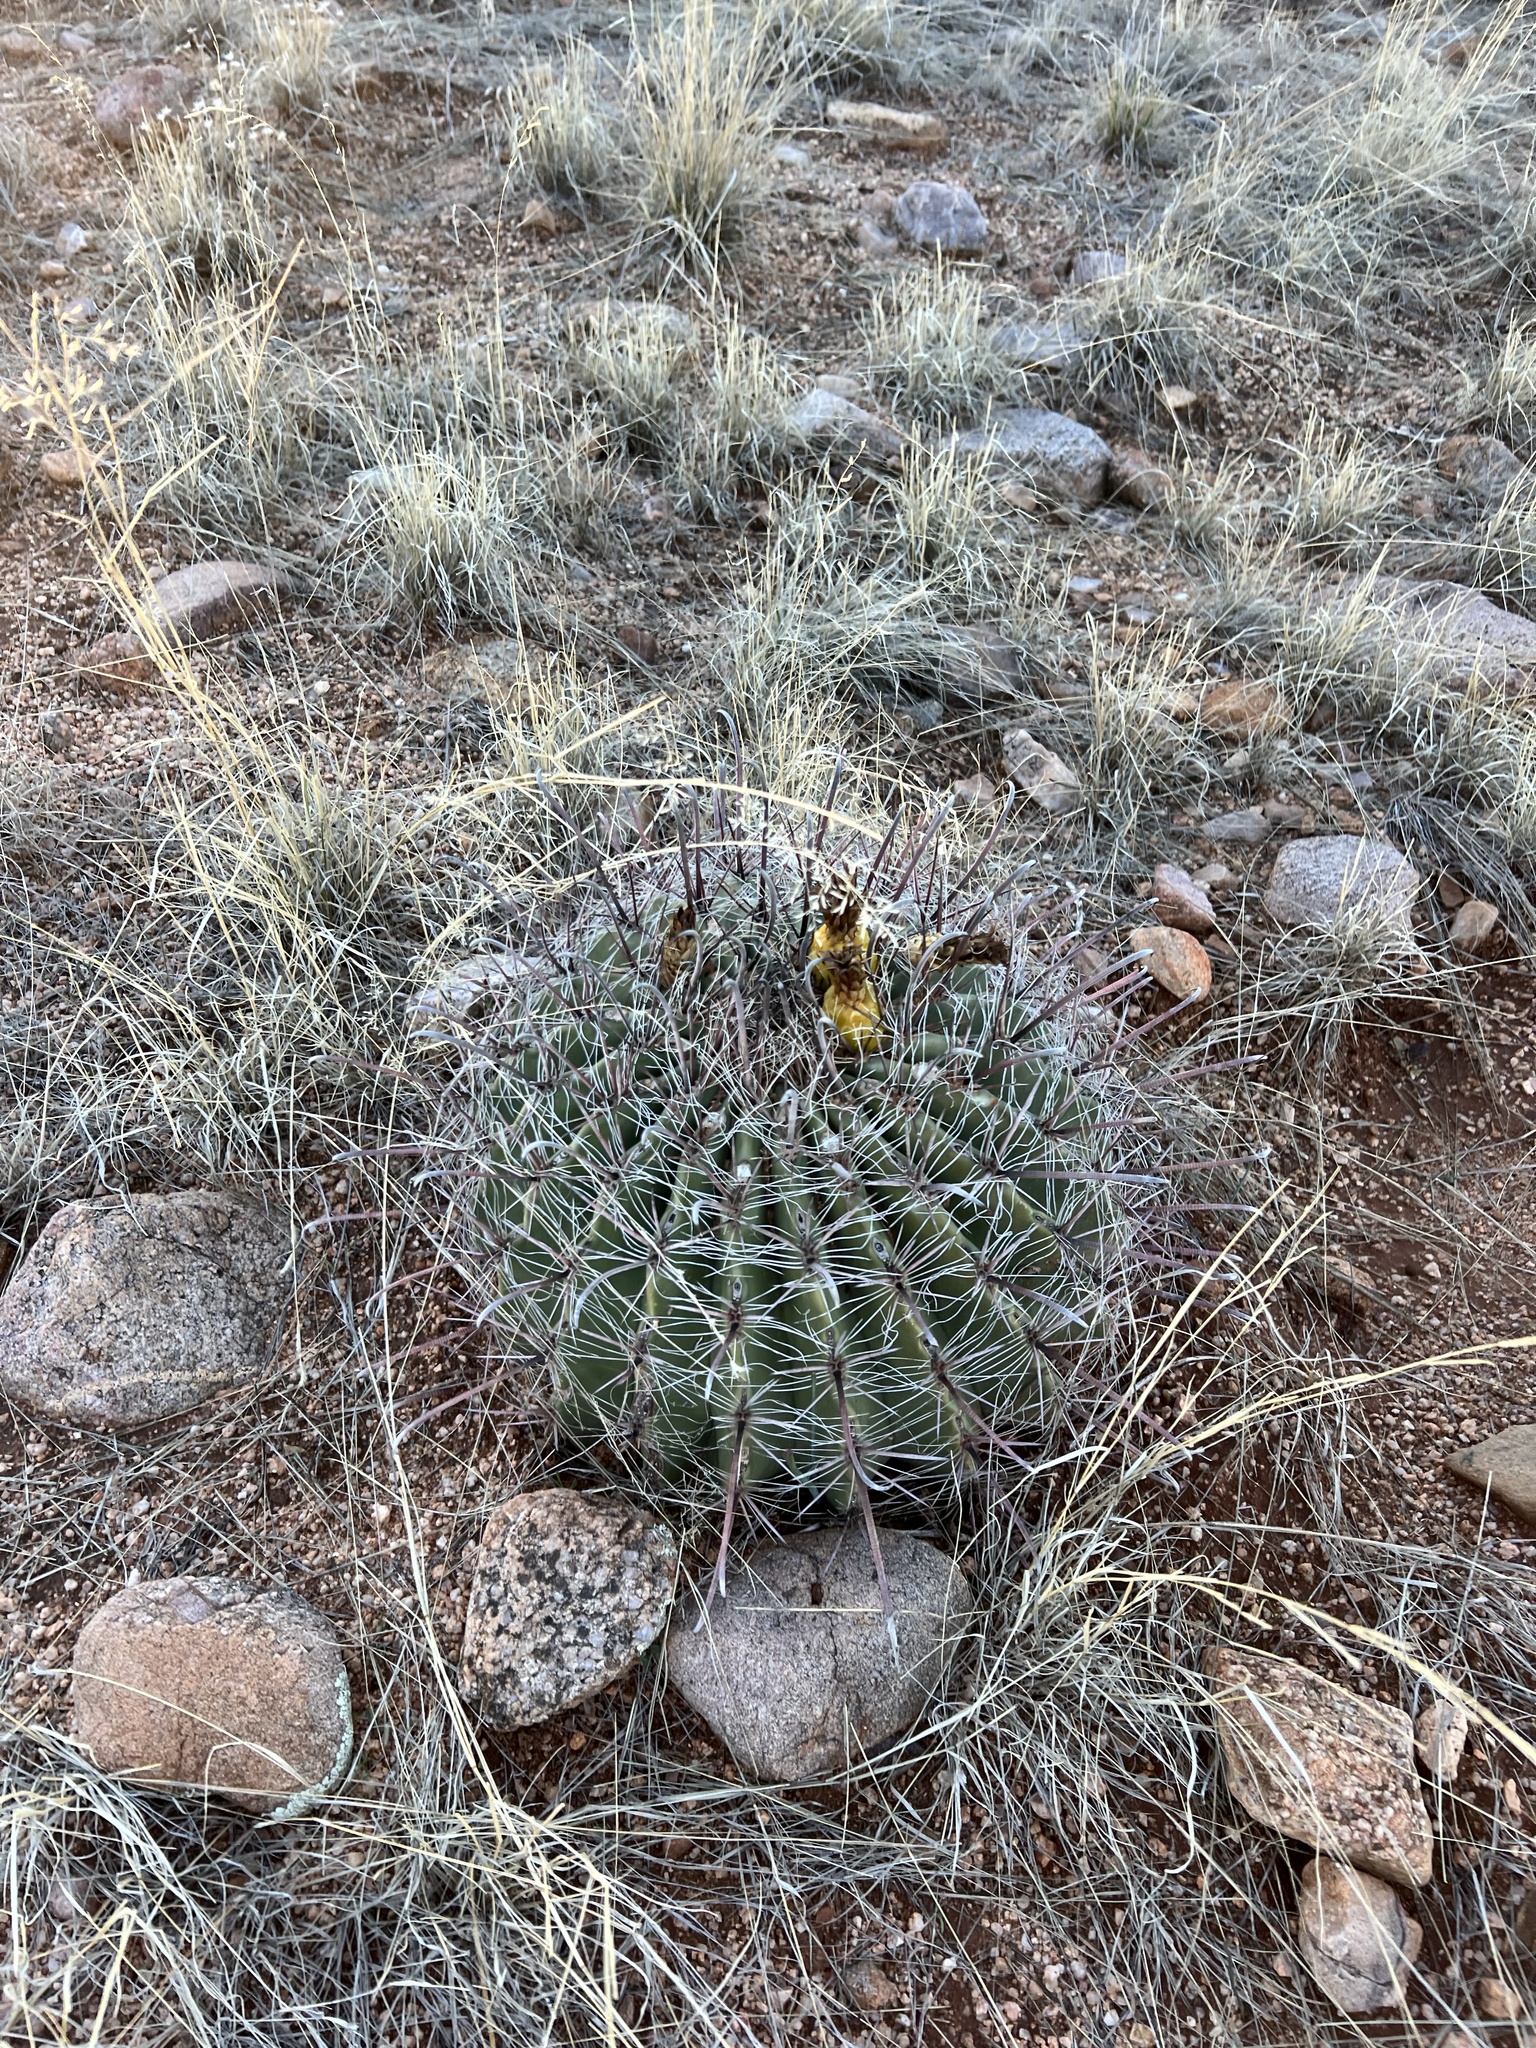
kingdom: Plantae
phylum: Tracheophyta
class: Magnoliopsida
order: Caryophyllales
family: Cactaceae
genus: Ferocactus
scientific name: Ferocactus wislizeni
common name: Candy barrel cactus
